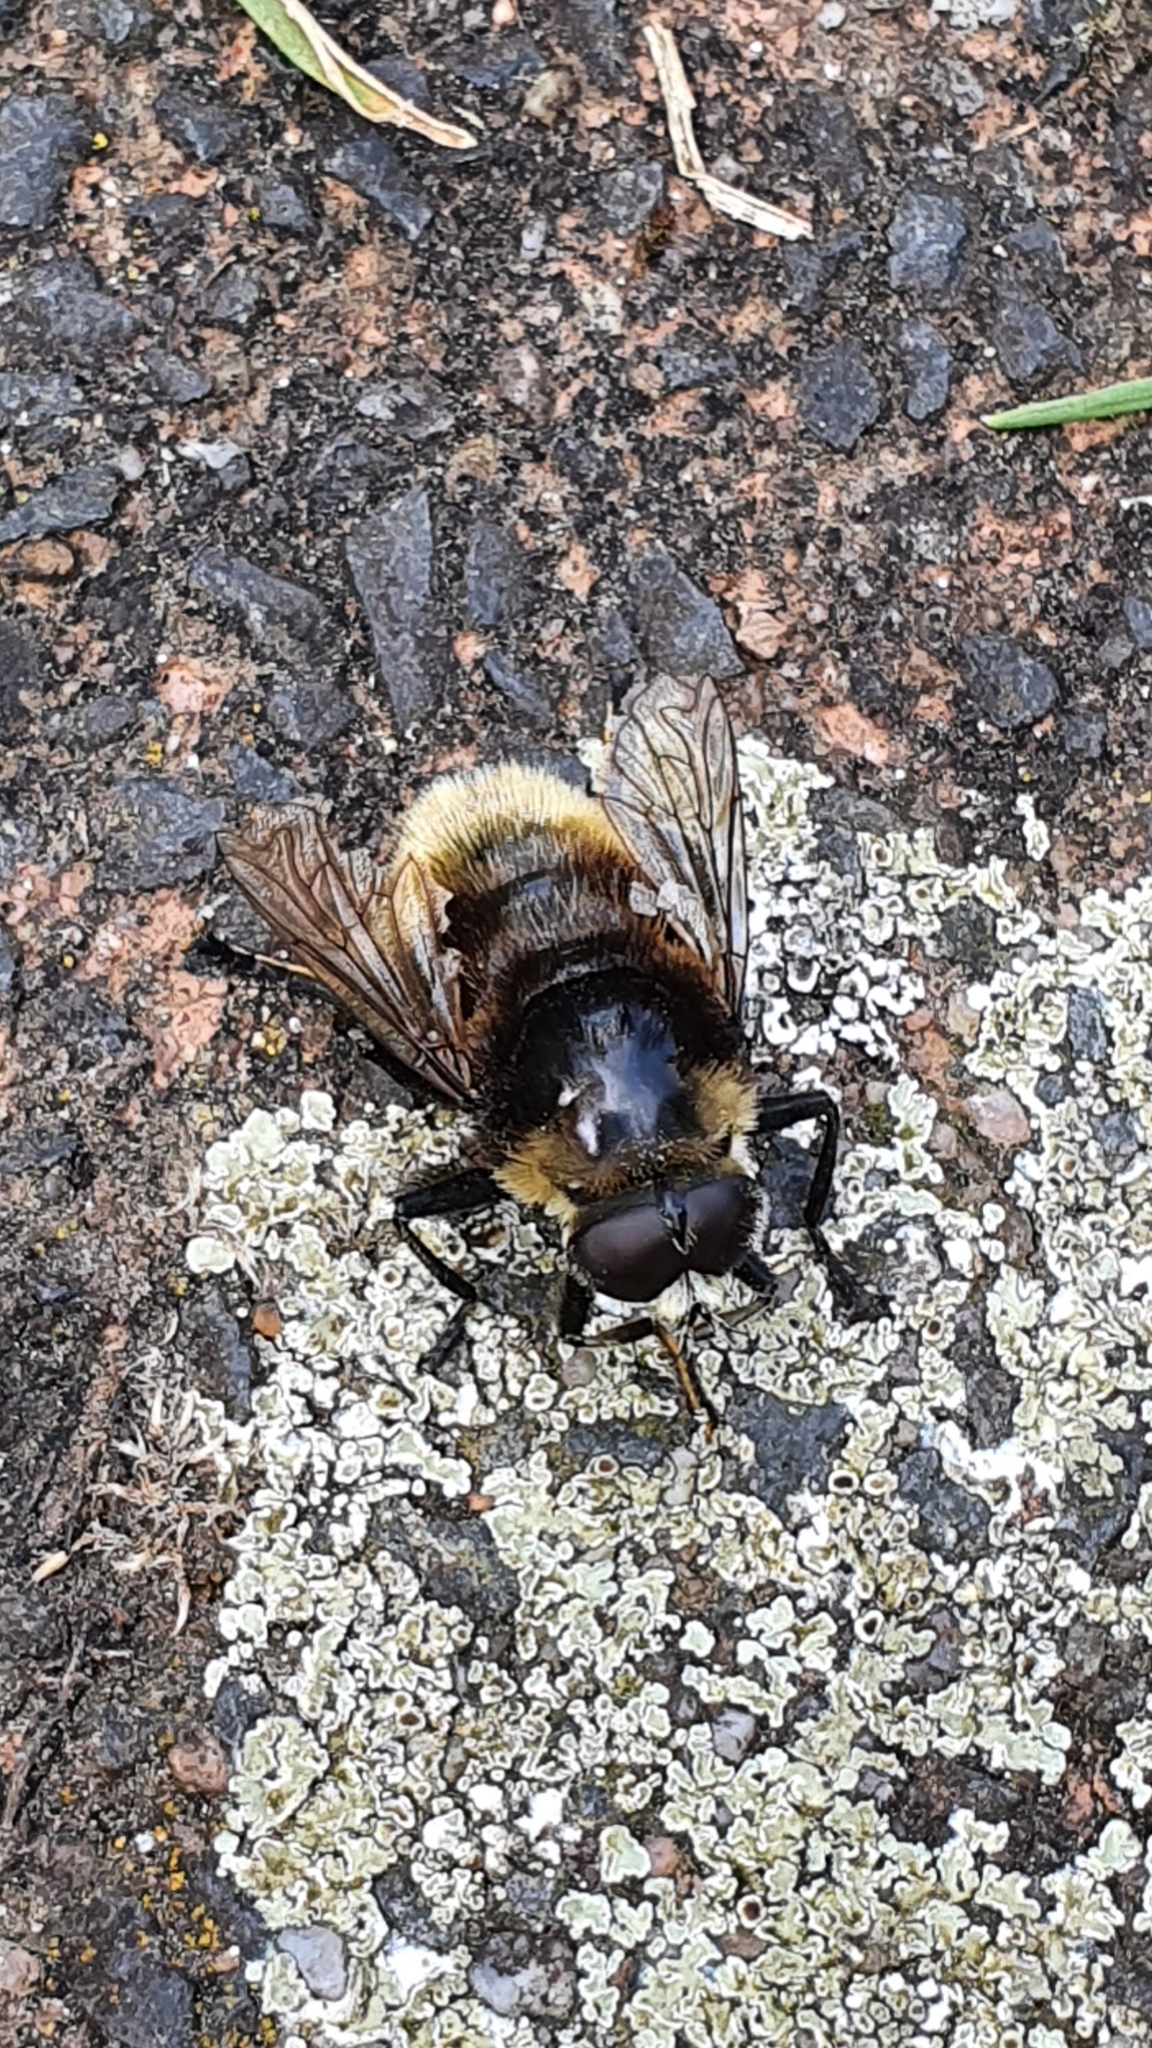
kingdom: Animalia
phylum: Arthropoda
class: Insecta
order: Diptera
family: Syrphidae
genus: Merodon
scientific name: Merodon equestris
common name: Greater bulb-fly
